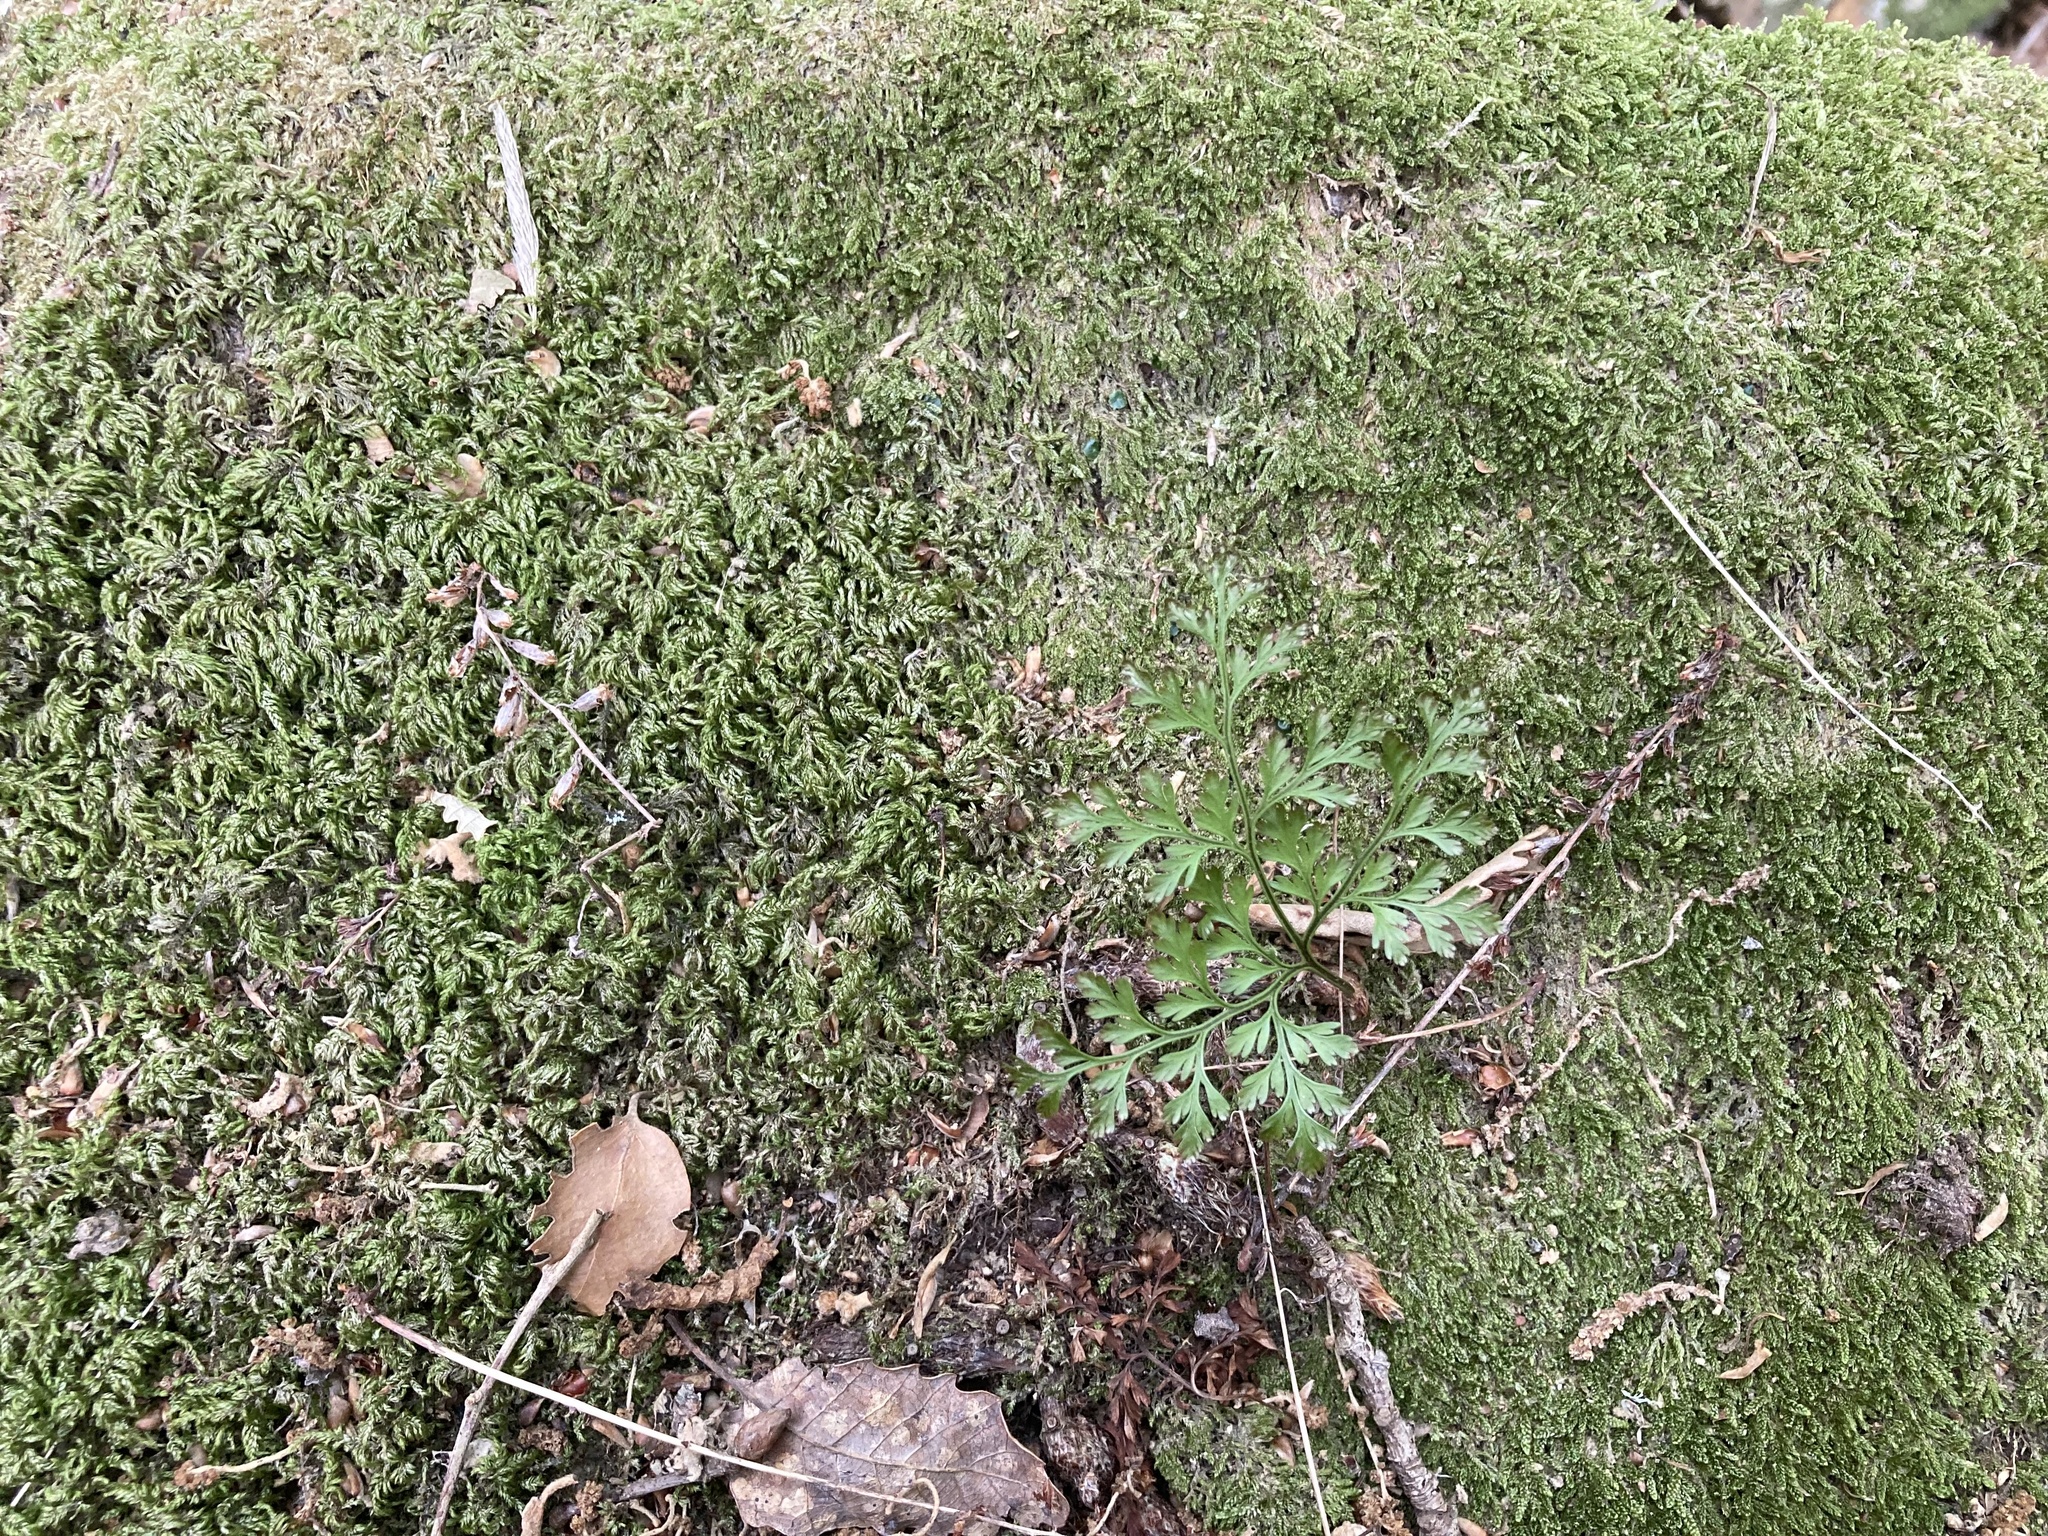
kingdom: Plantae
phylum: Tracheophyta
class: Polypodiopsida
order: Polypodiales
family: Davalliaceae
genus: Davallia
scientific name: Davallia canariensis
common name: Hare's-foot fern
